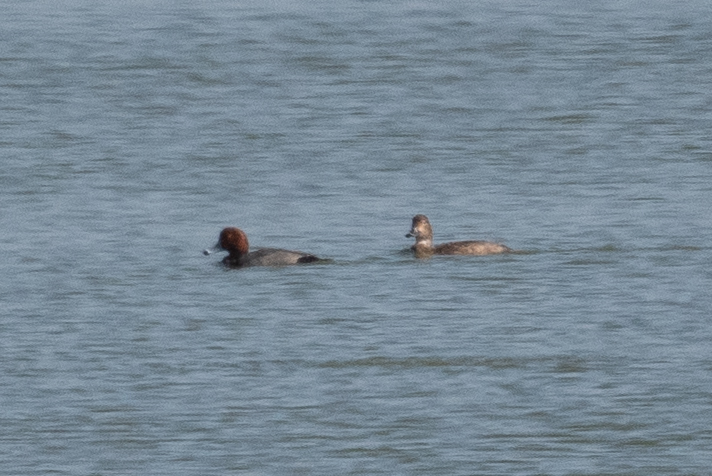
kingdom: Animalia
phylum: Chordata
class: Aves
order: Anseriformes
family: Anatidae
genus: Aythya
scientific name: Aythya americana
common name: Redhead
